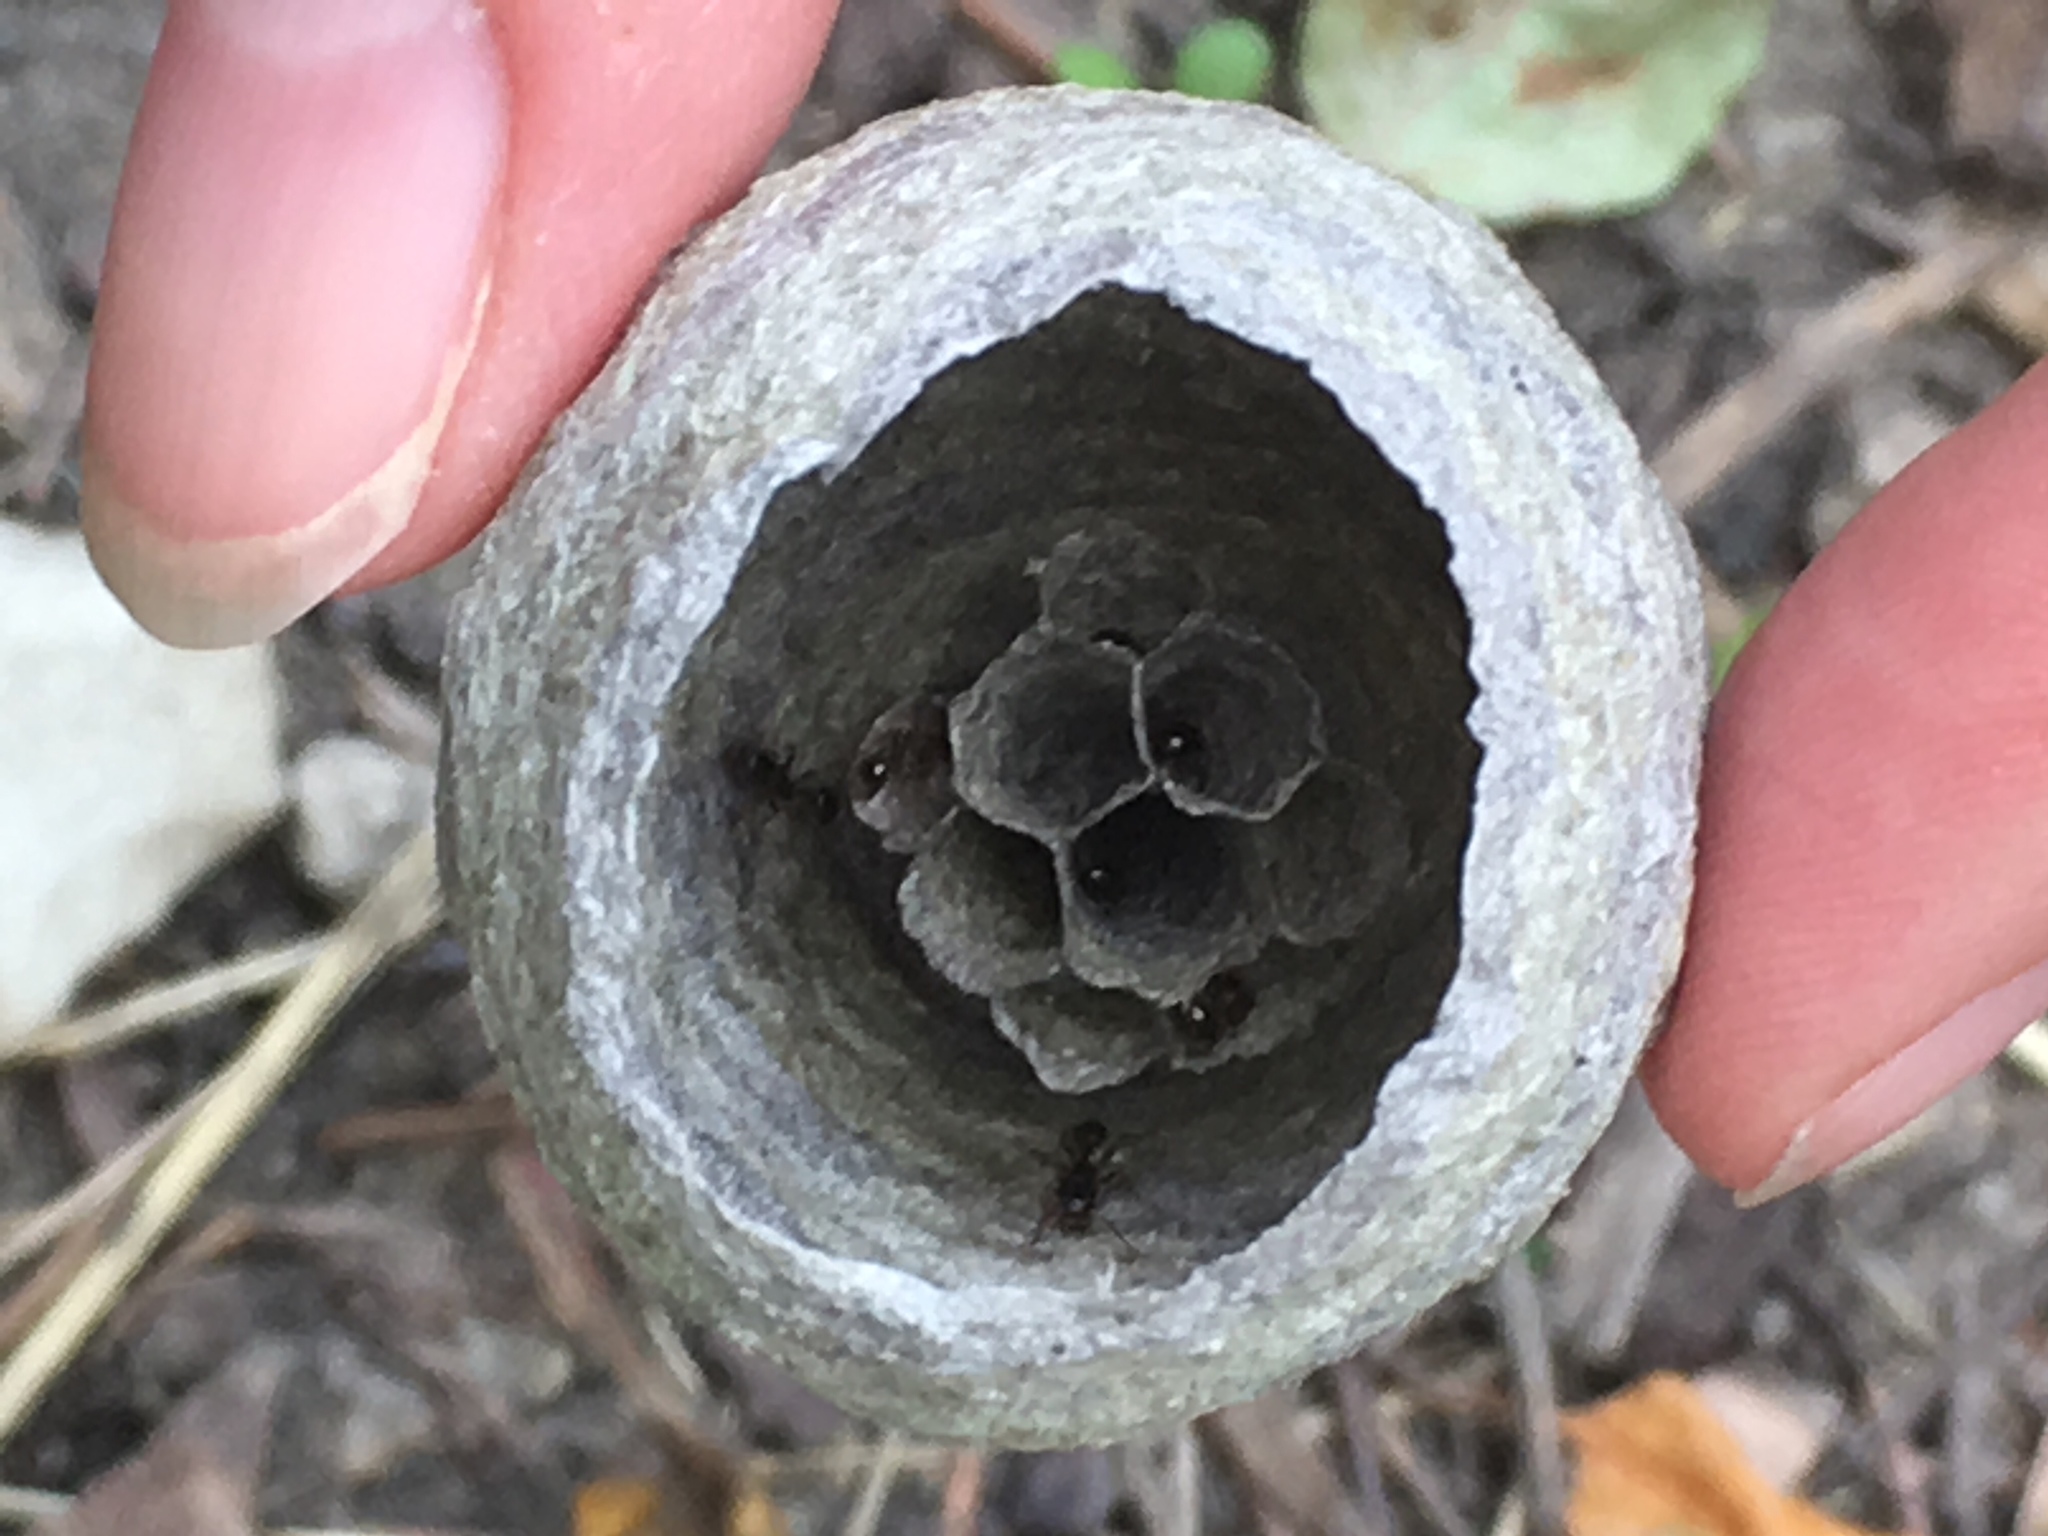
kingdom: Animalia
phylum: Arthropoda
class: Insecta
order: Hymenoptera
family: Vespidae
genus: Dolichovespula
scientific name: Dolichovespula
